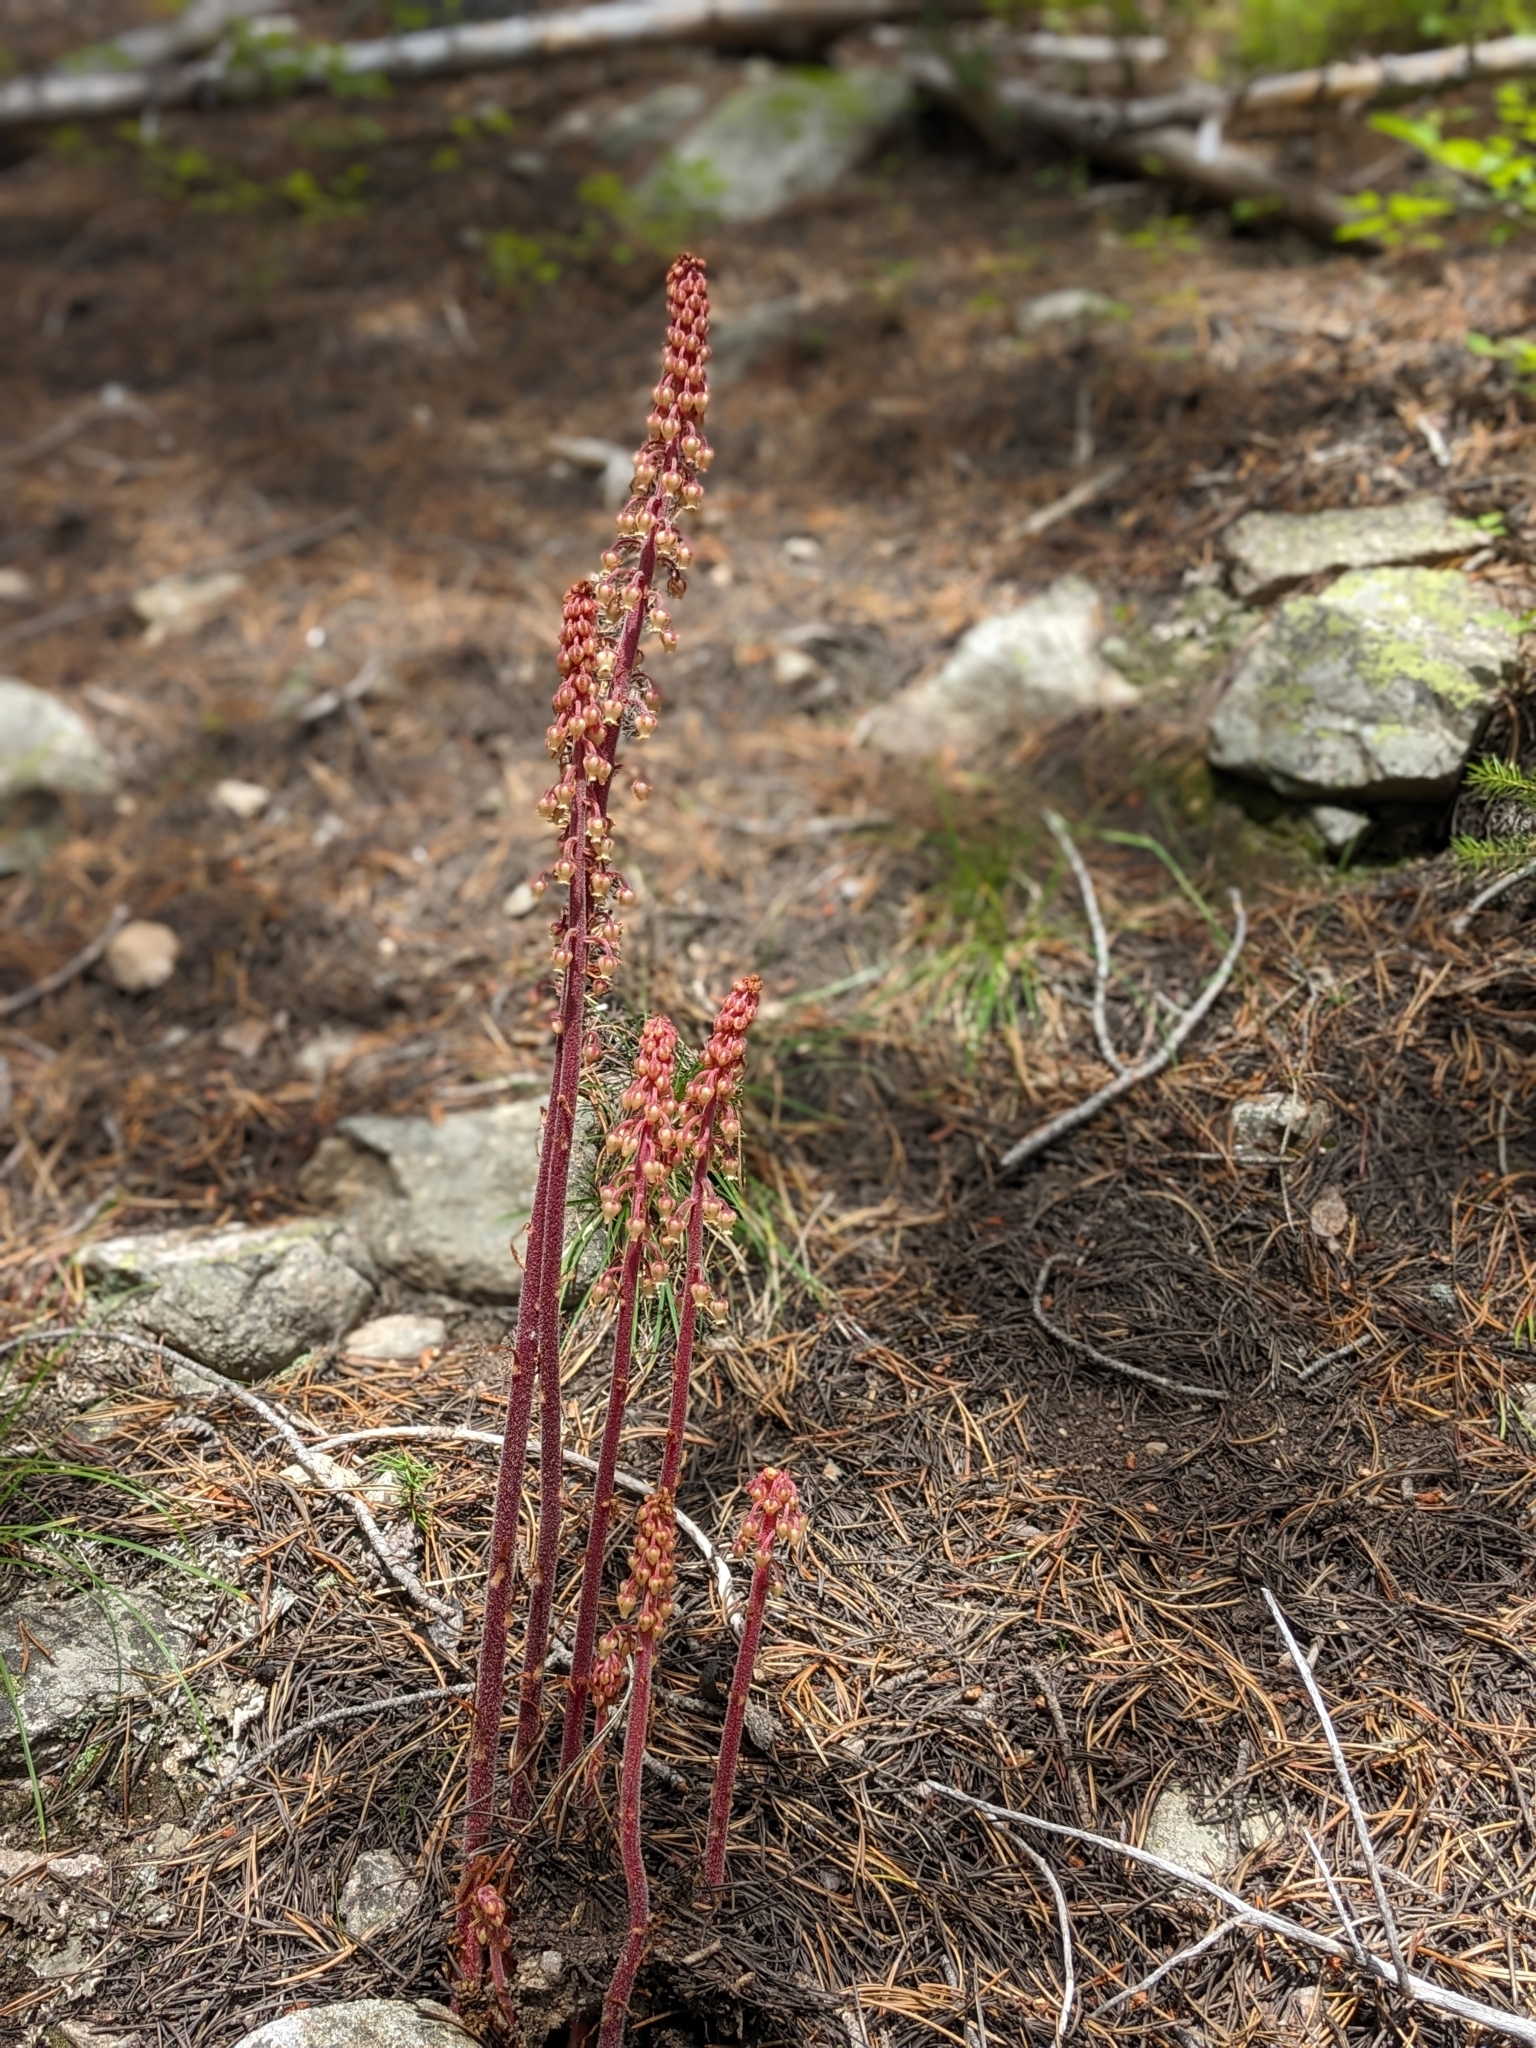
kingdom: Plantae
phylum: Tracheophyta
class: Magnoliopsida
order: Ericales
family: Ericaceae
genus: Pterospora
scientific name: Pterospora andromedea
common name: Giant bird's-nest
